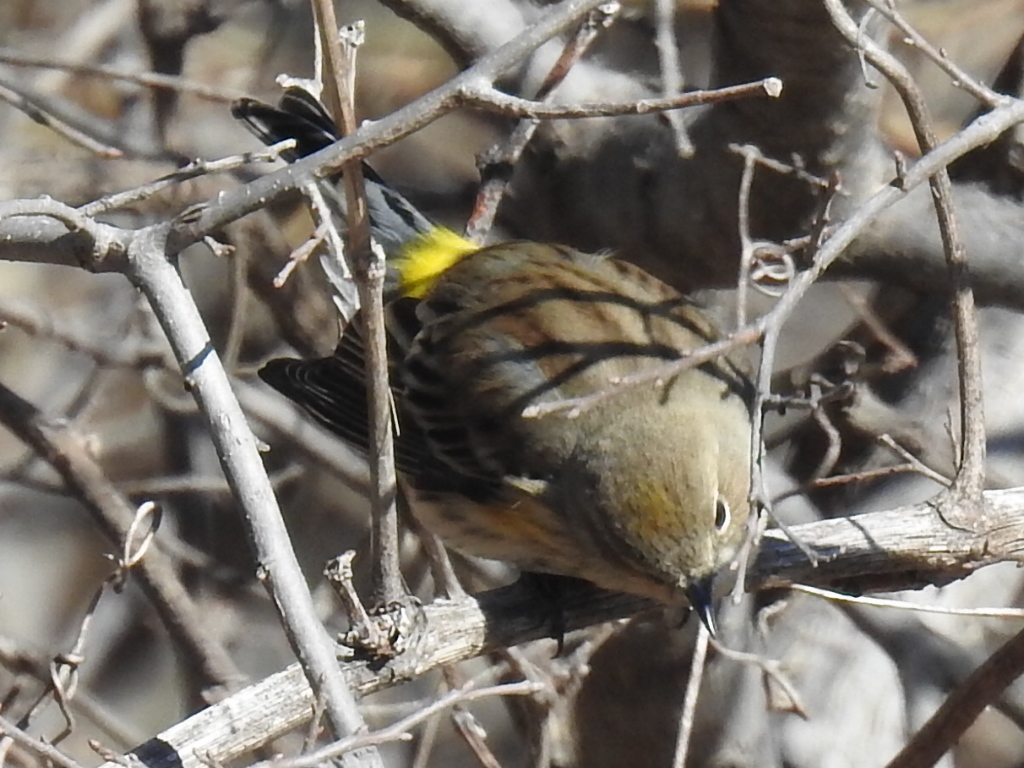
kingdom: Animalia
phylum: Chordata
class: Aves
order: Passeriformes
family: Parulidae
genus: Setophaga
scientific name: Setophaga coronata
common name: Myrtle warbler
